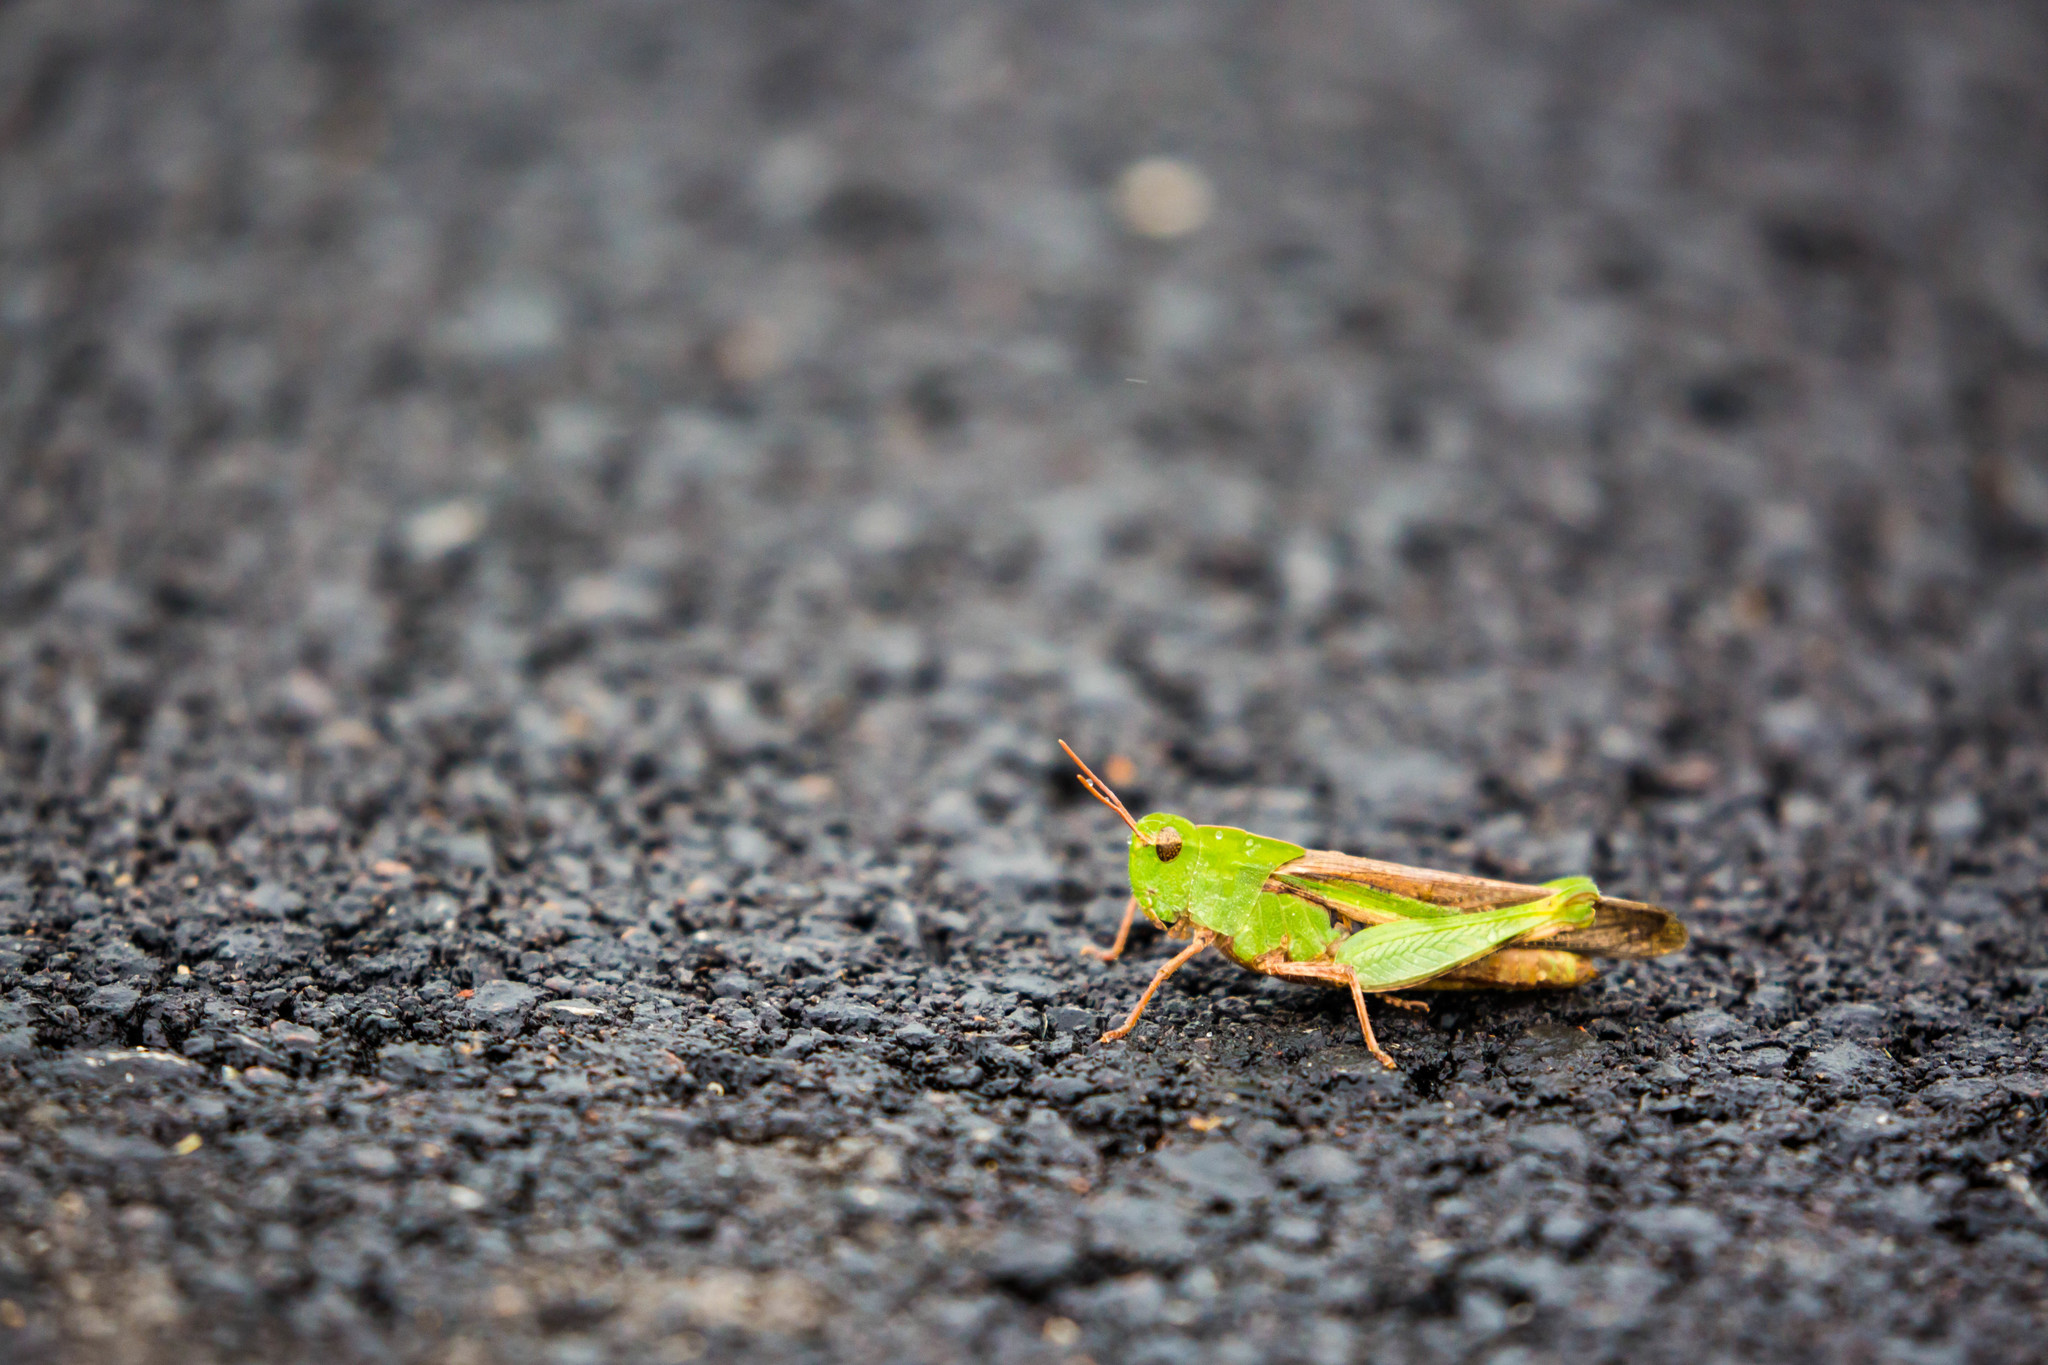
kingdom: Animalia
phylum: Arthropoda
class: Insecta
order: Orthoptera
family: Acrididae
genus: Chortophaga
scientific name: Chortophaga viridifasciata
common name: Green-striped grasshopper
